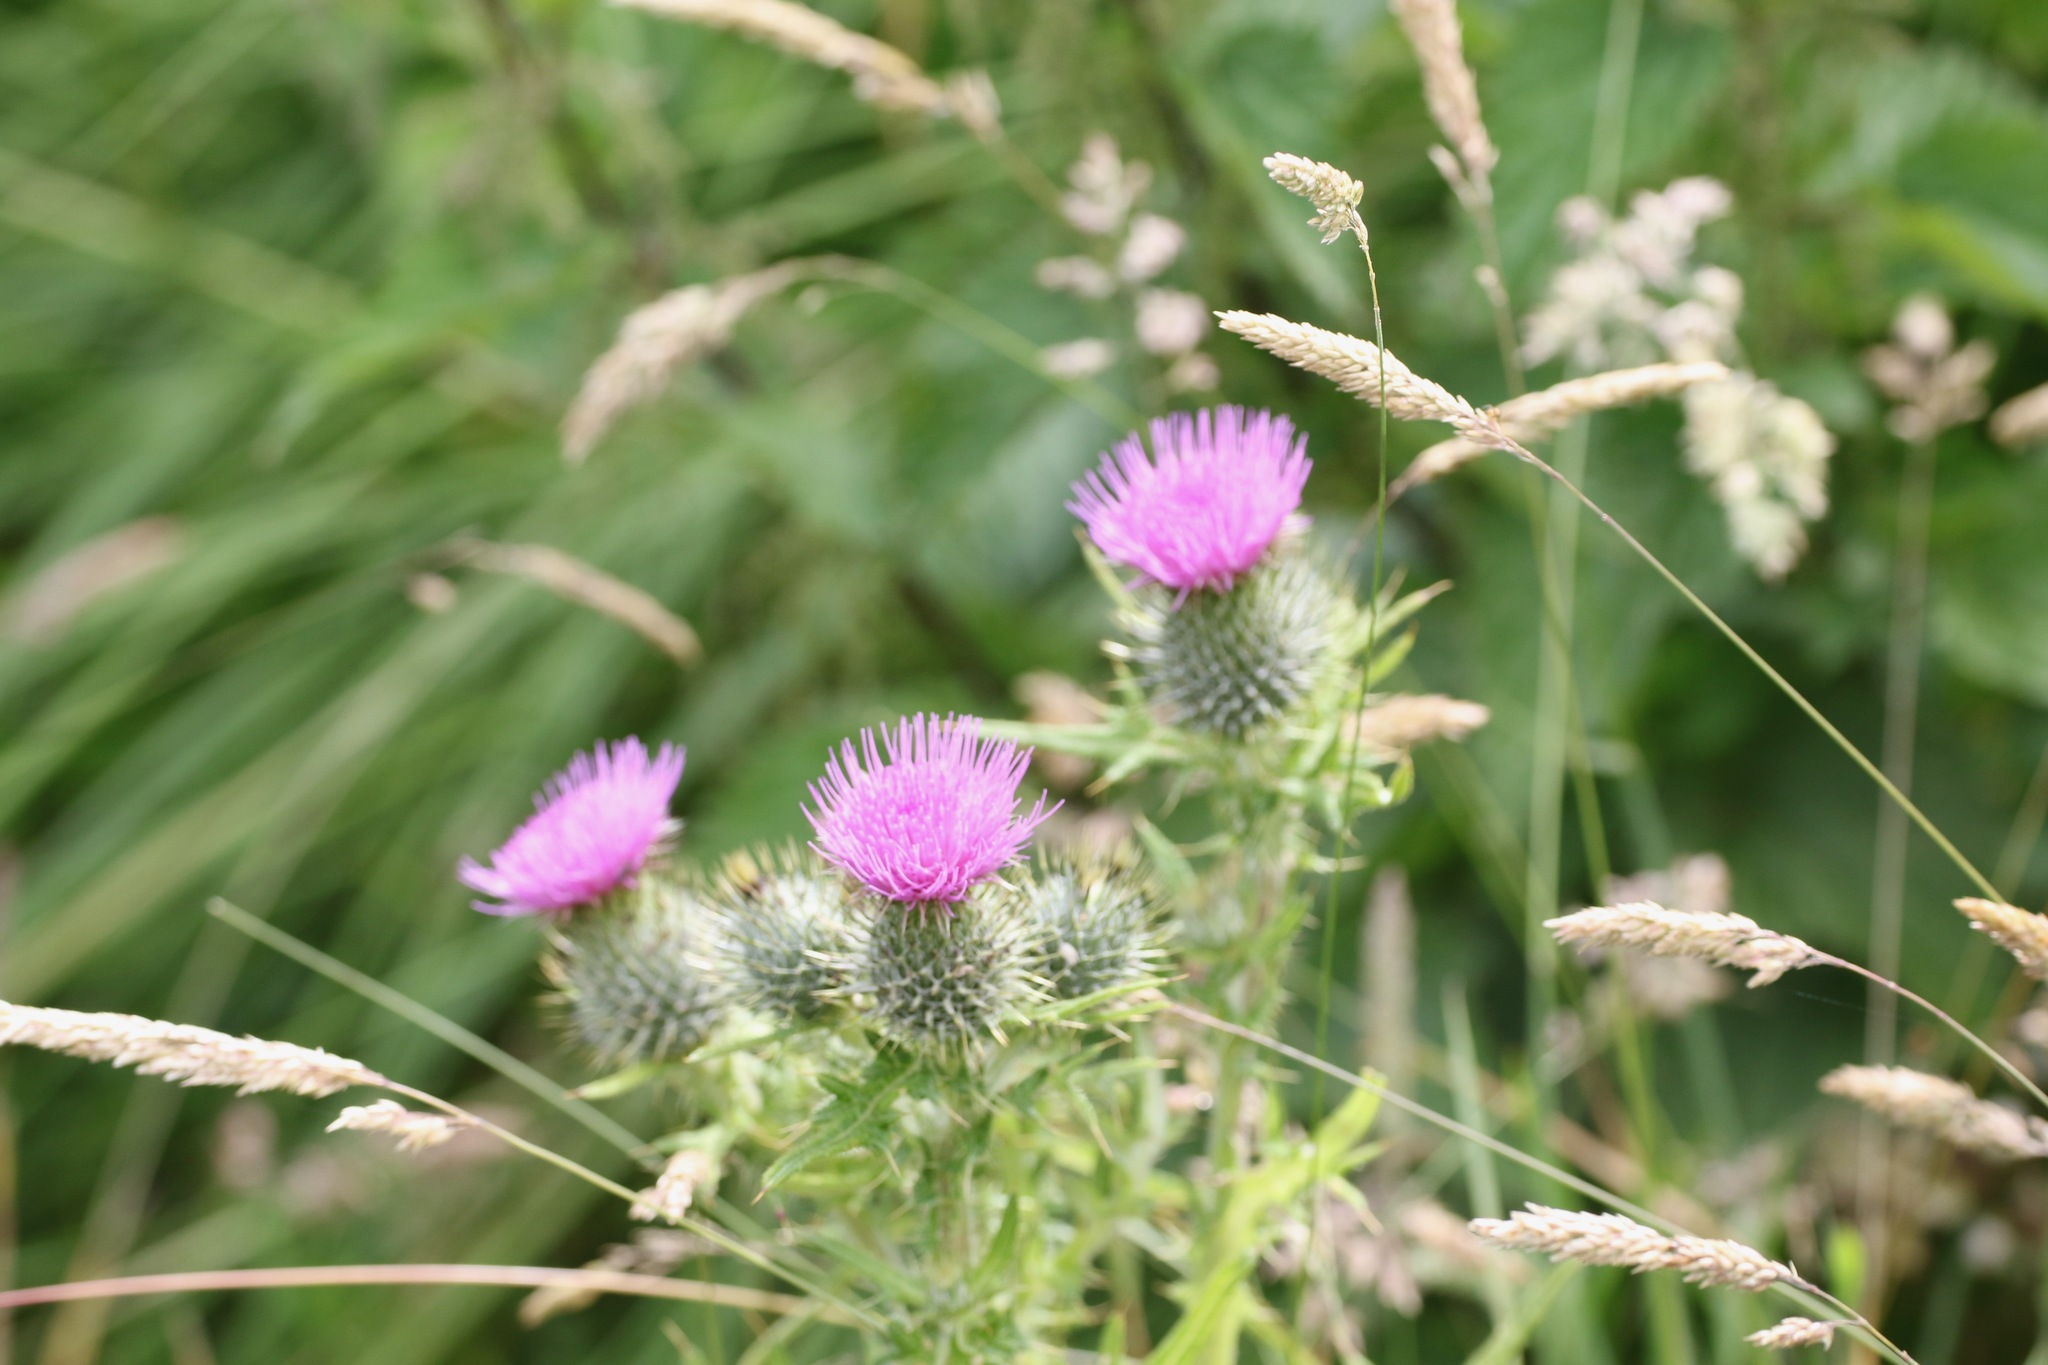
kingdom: Plantae
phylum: Tracheophyta
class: Magnoliopsida
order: Asterales
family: Asteraceae
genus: Cirsium
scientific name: Cirsium vulgare
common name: Bull thistle
